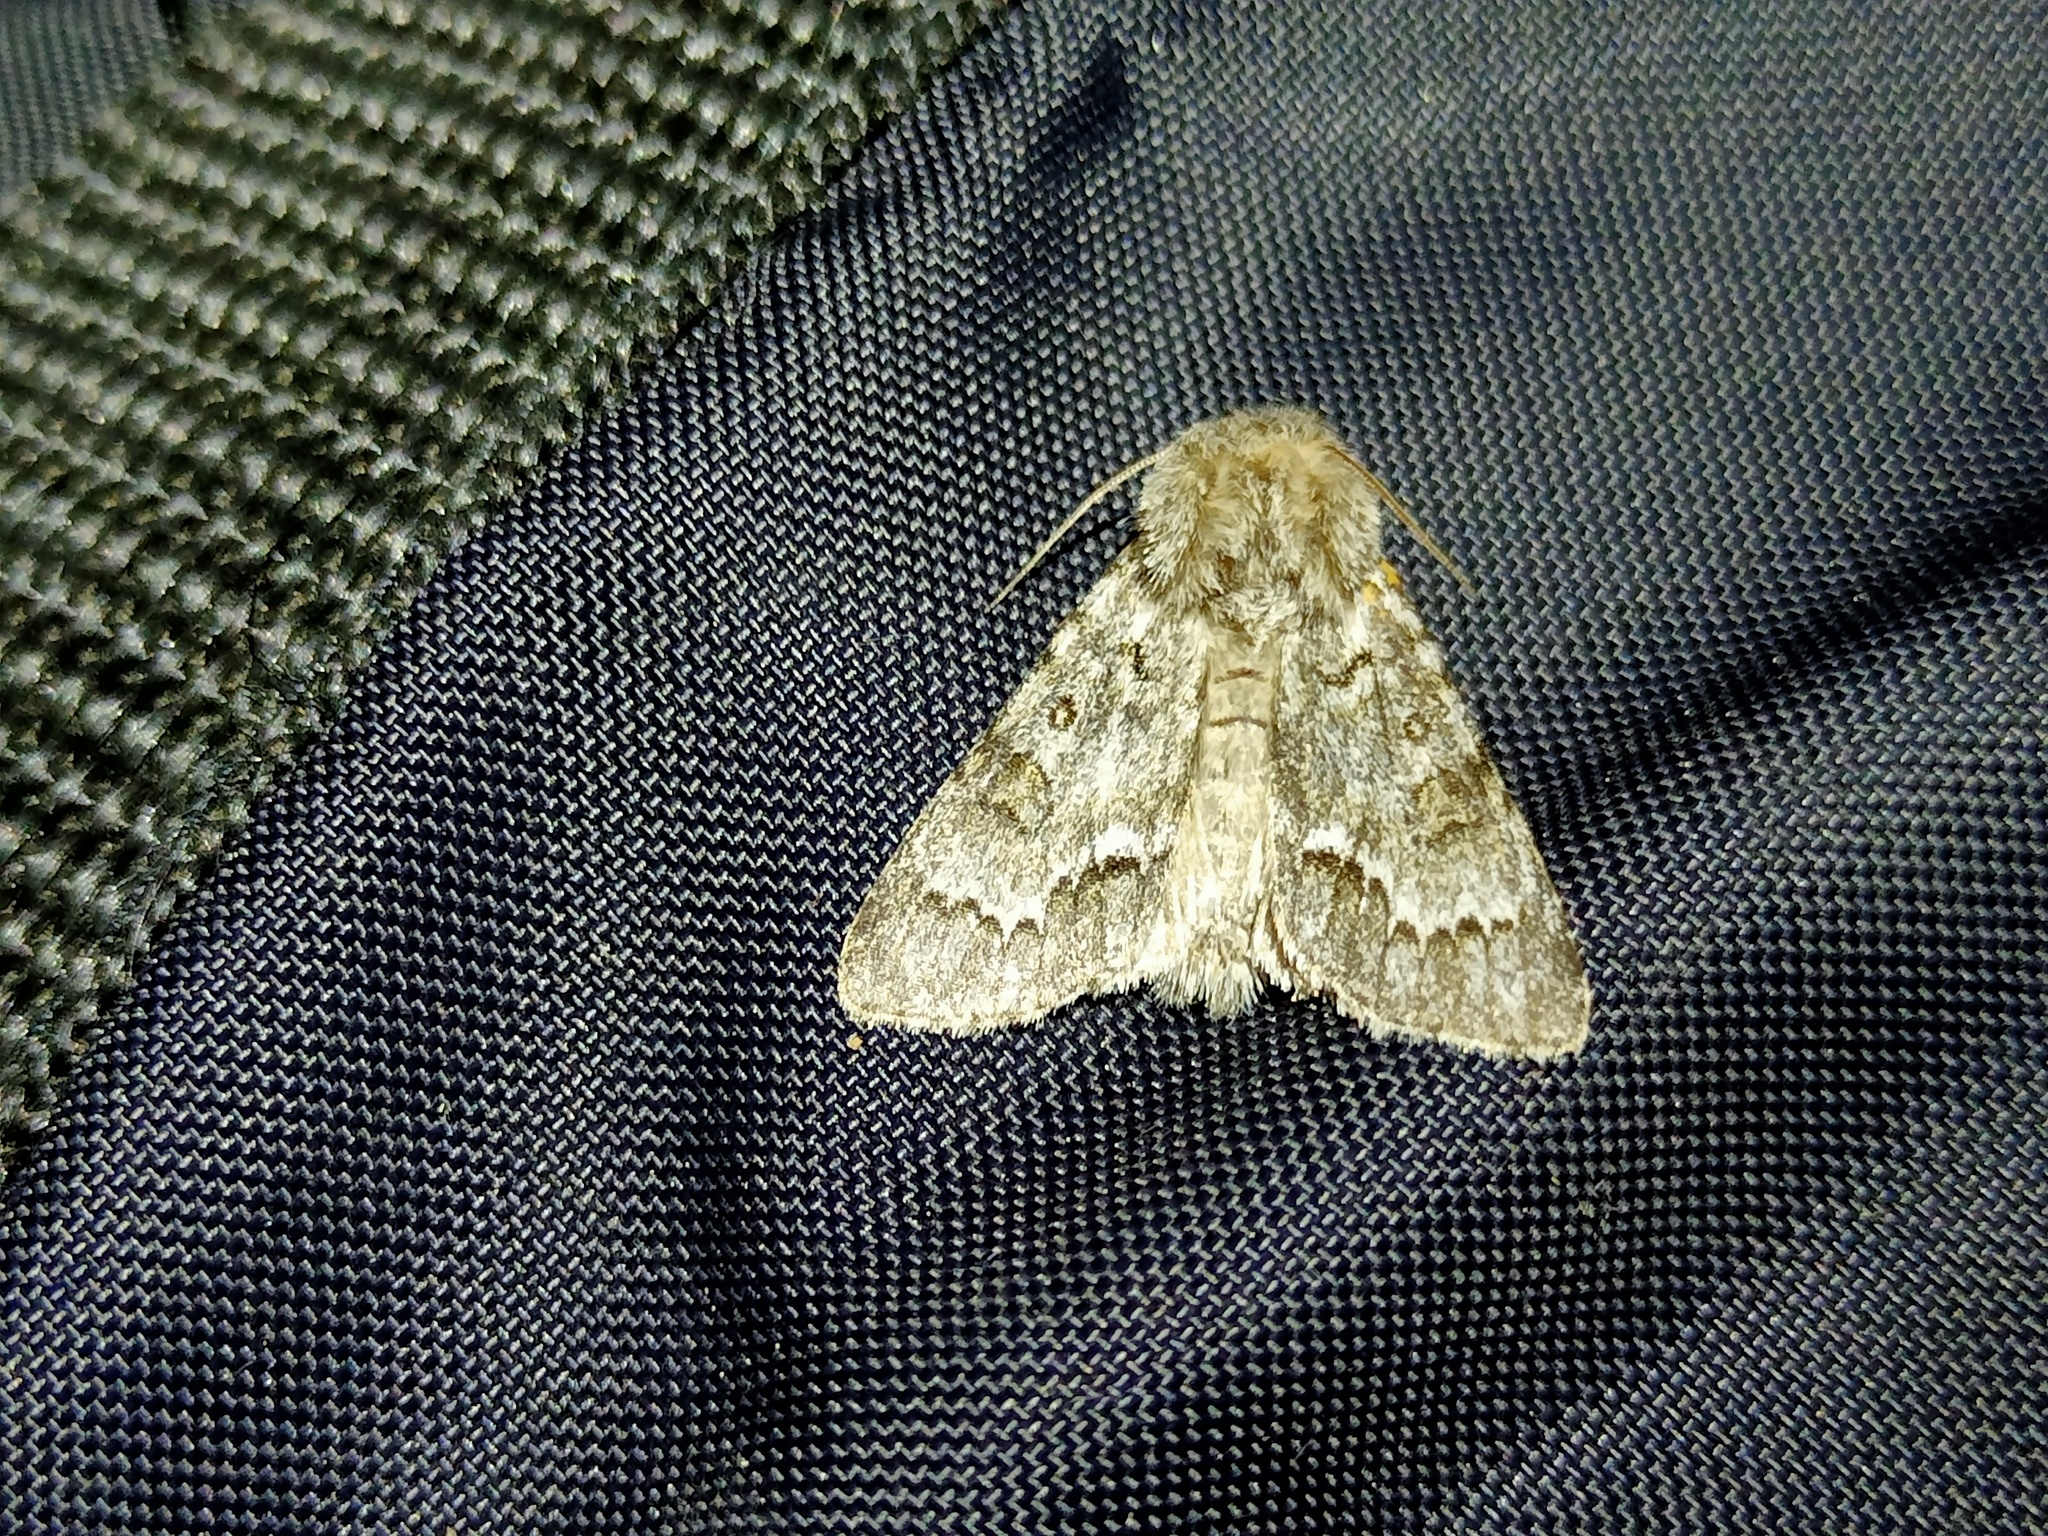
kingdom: Animalia
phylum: Arthropoda
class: Insecta
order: Lepidoptera
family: Noctuidae
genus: Acronicta
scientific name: Acronicta menyanthidis
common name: Light knot grass
